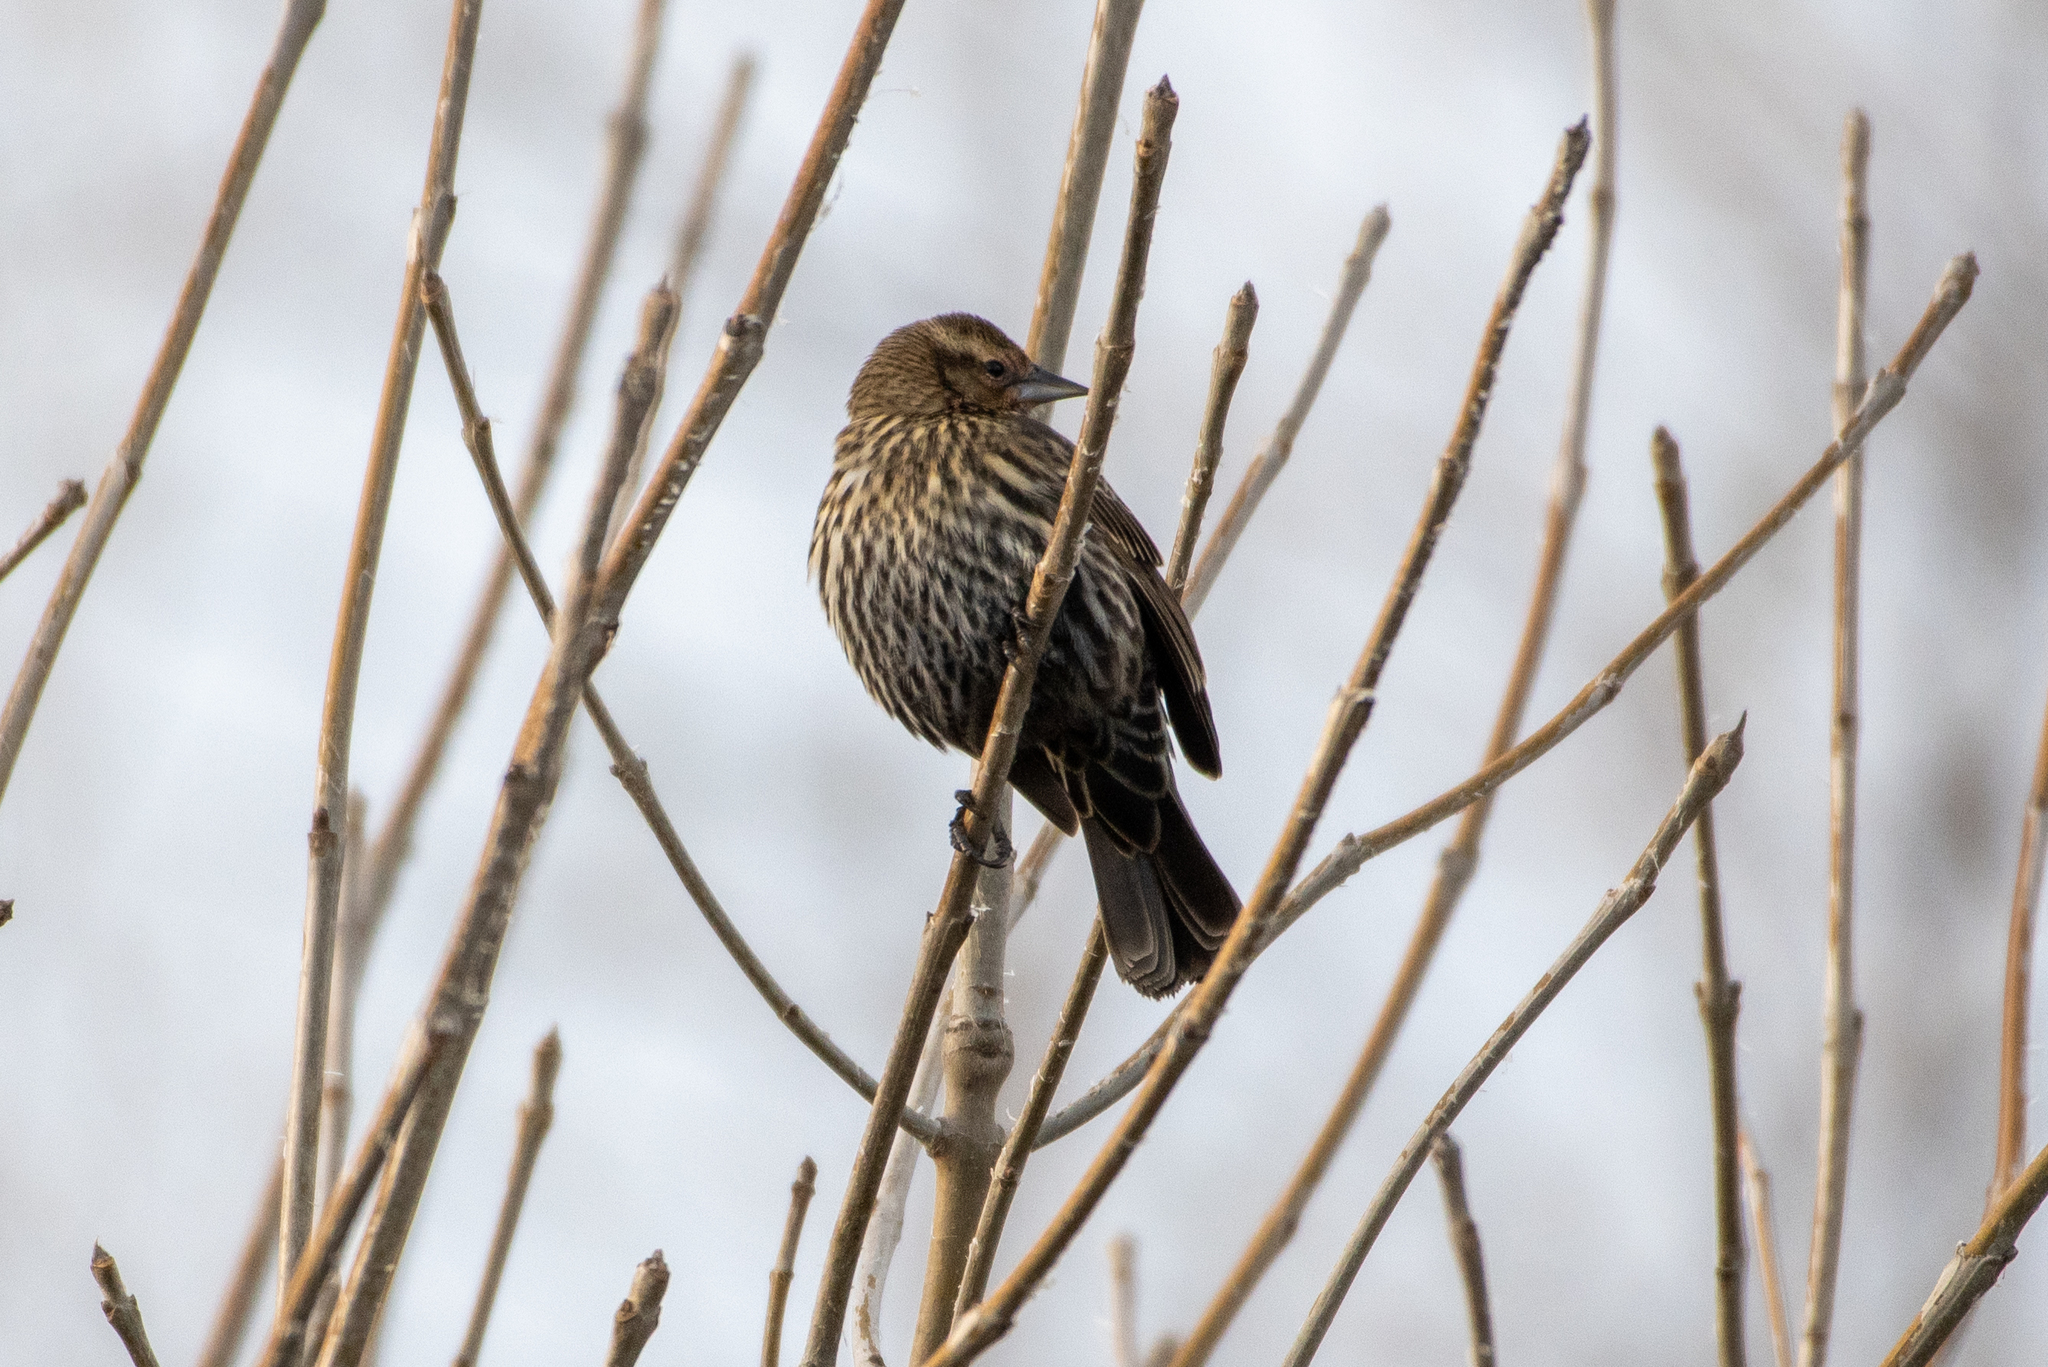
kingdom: Animalia
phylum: Chordata
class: Aves
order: Passeriformes
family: Icteridae
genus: Agelaius
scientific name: Agelaius phoeniceus
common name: Red-winged blackbird
